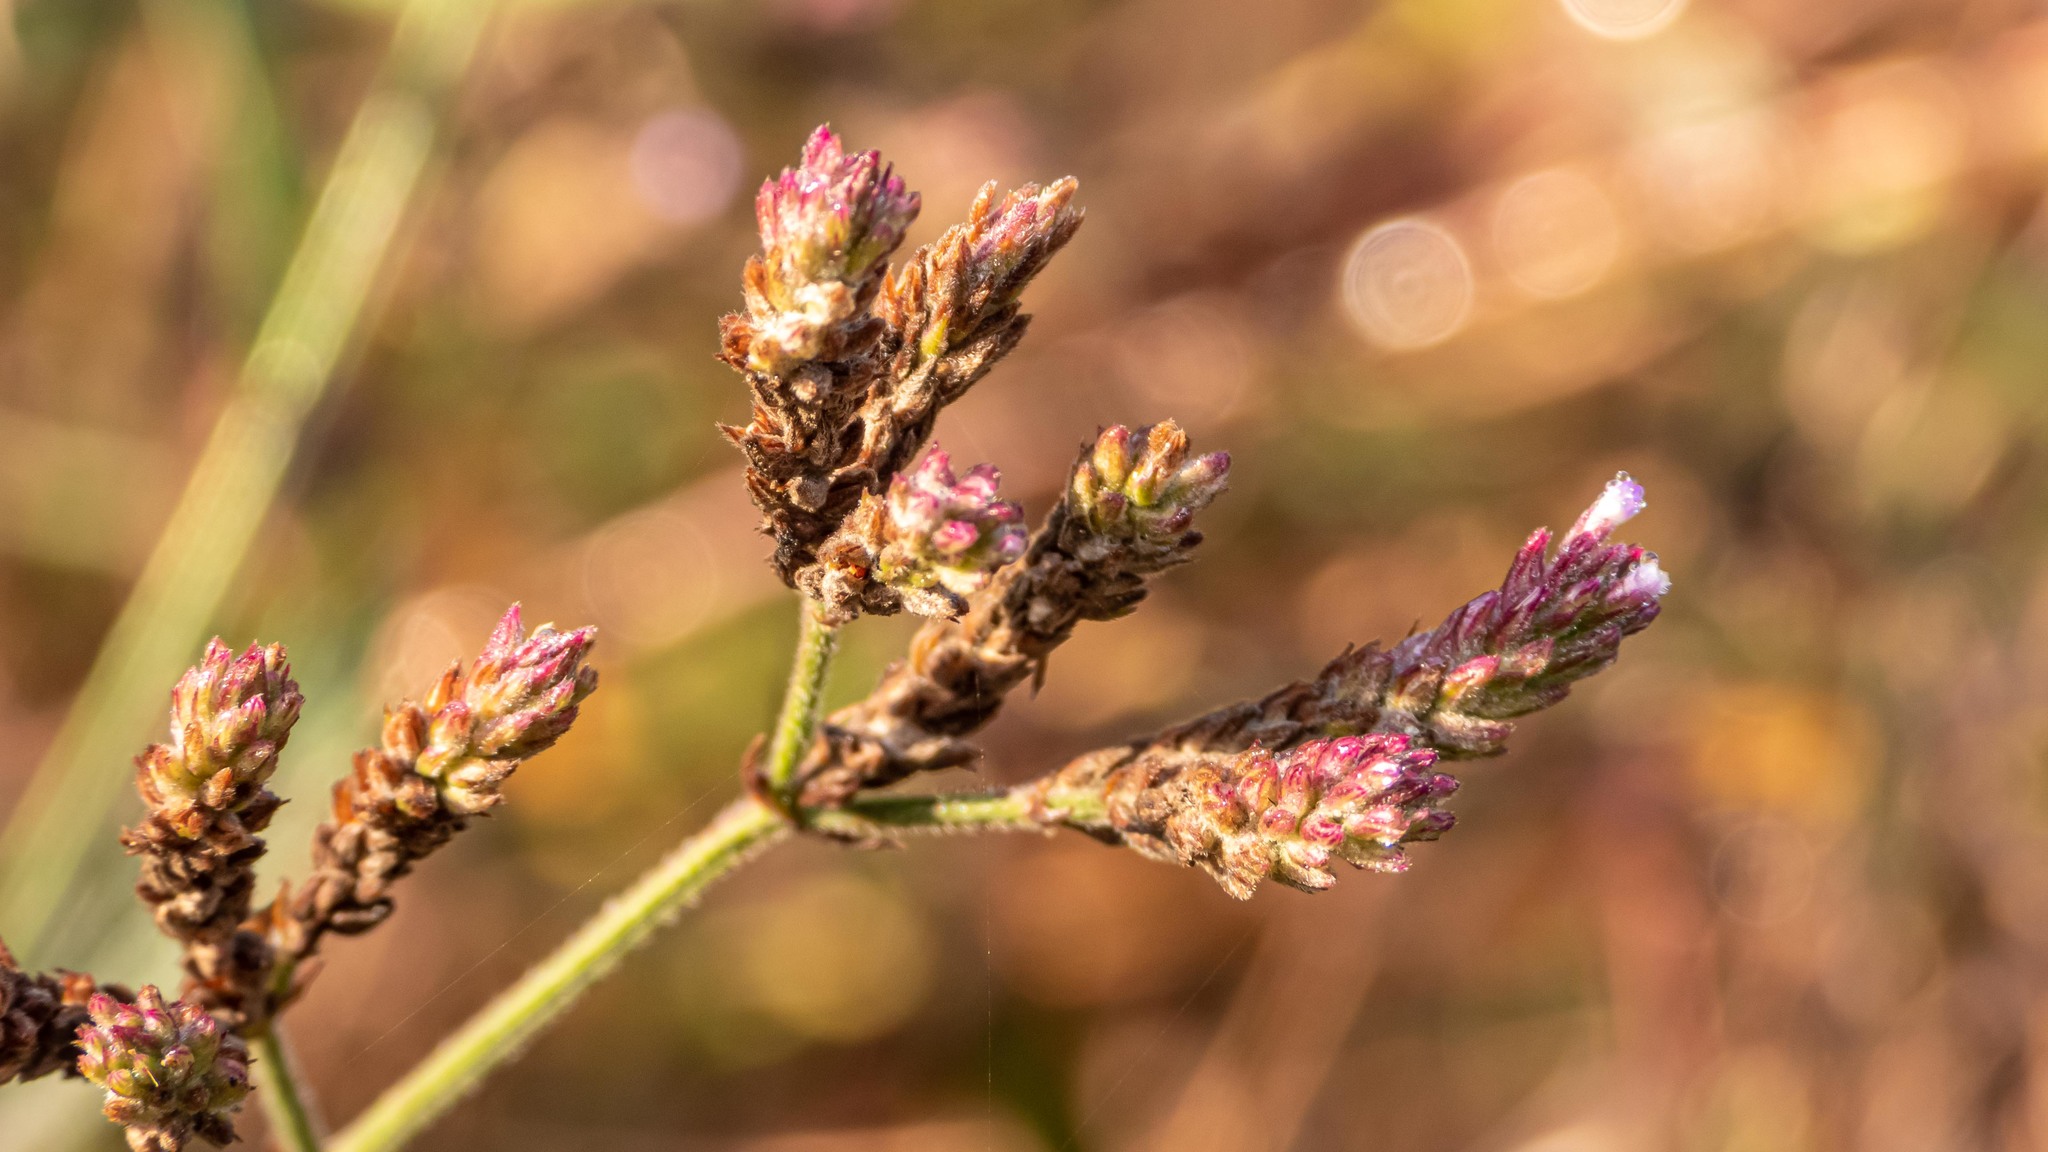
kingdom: Plantae
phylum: Tracheophyta
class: Magnoliopsida
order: Lamiales
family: Verbenaceae
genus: Verbena
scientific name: Verbena brasiliensis
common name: Brazilian vervain
